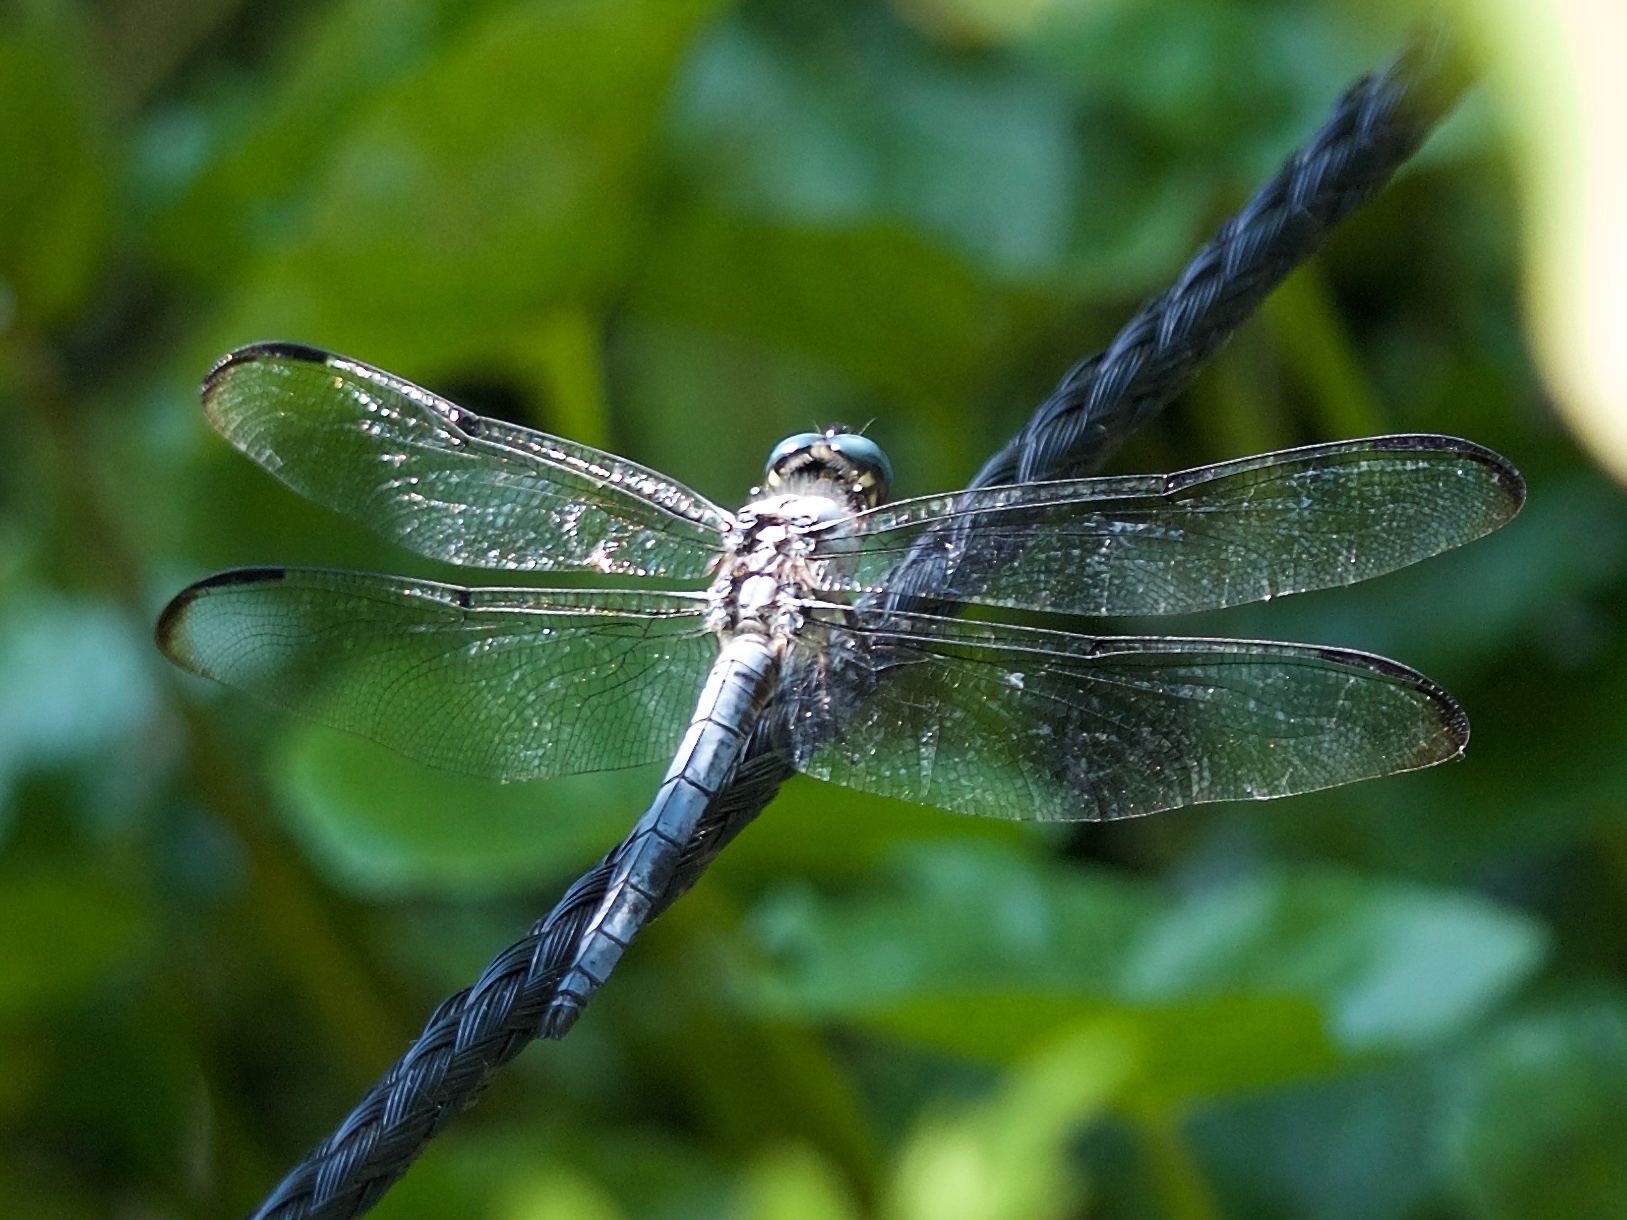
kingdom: Animalia
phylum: Arthropoda
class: Insecta
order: Odonata
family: Libellulidae
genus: Libellula
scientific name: Libellula vibrans
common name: Great blue skimmer
